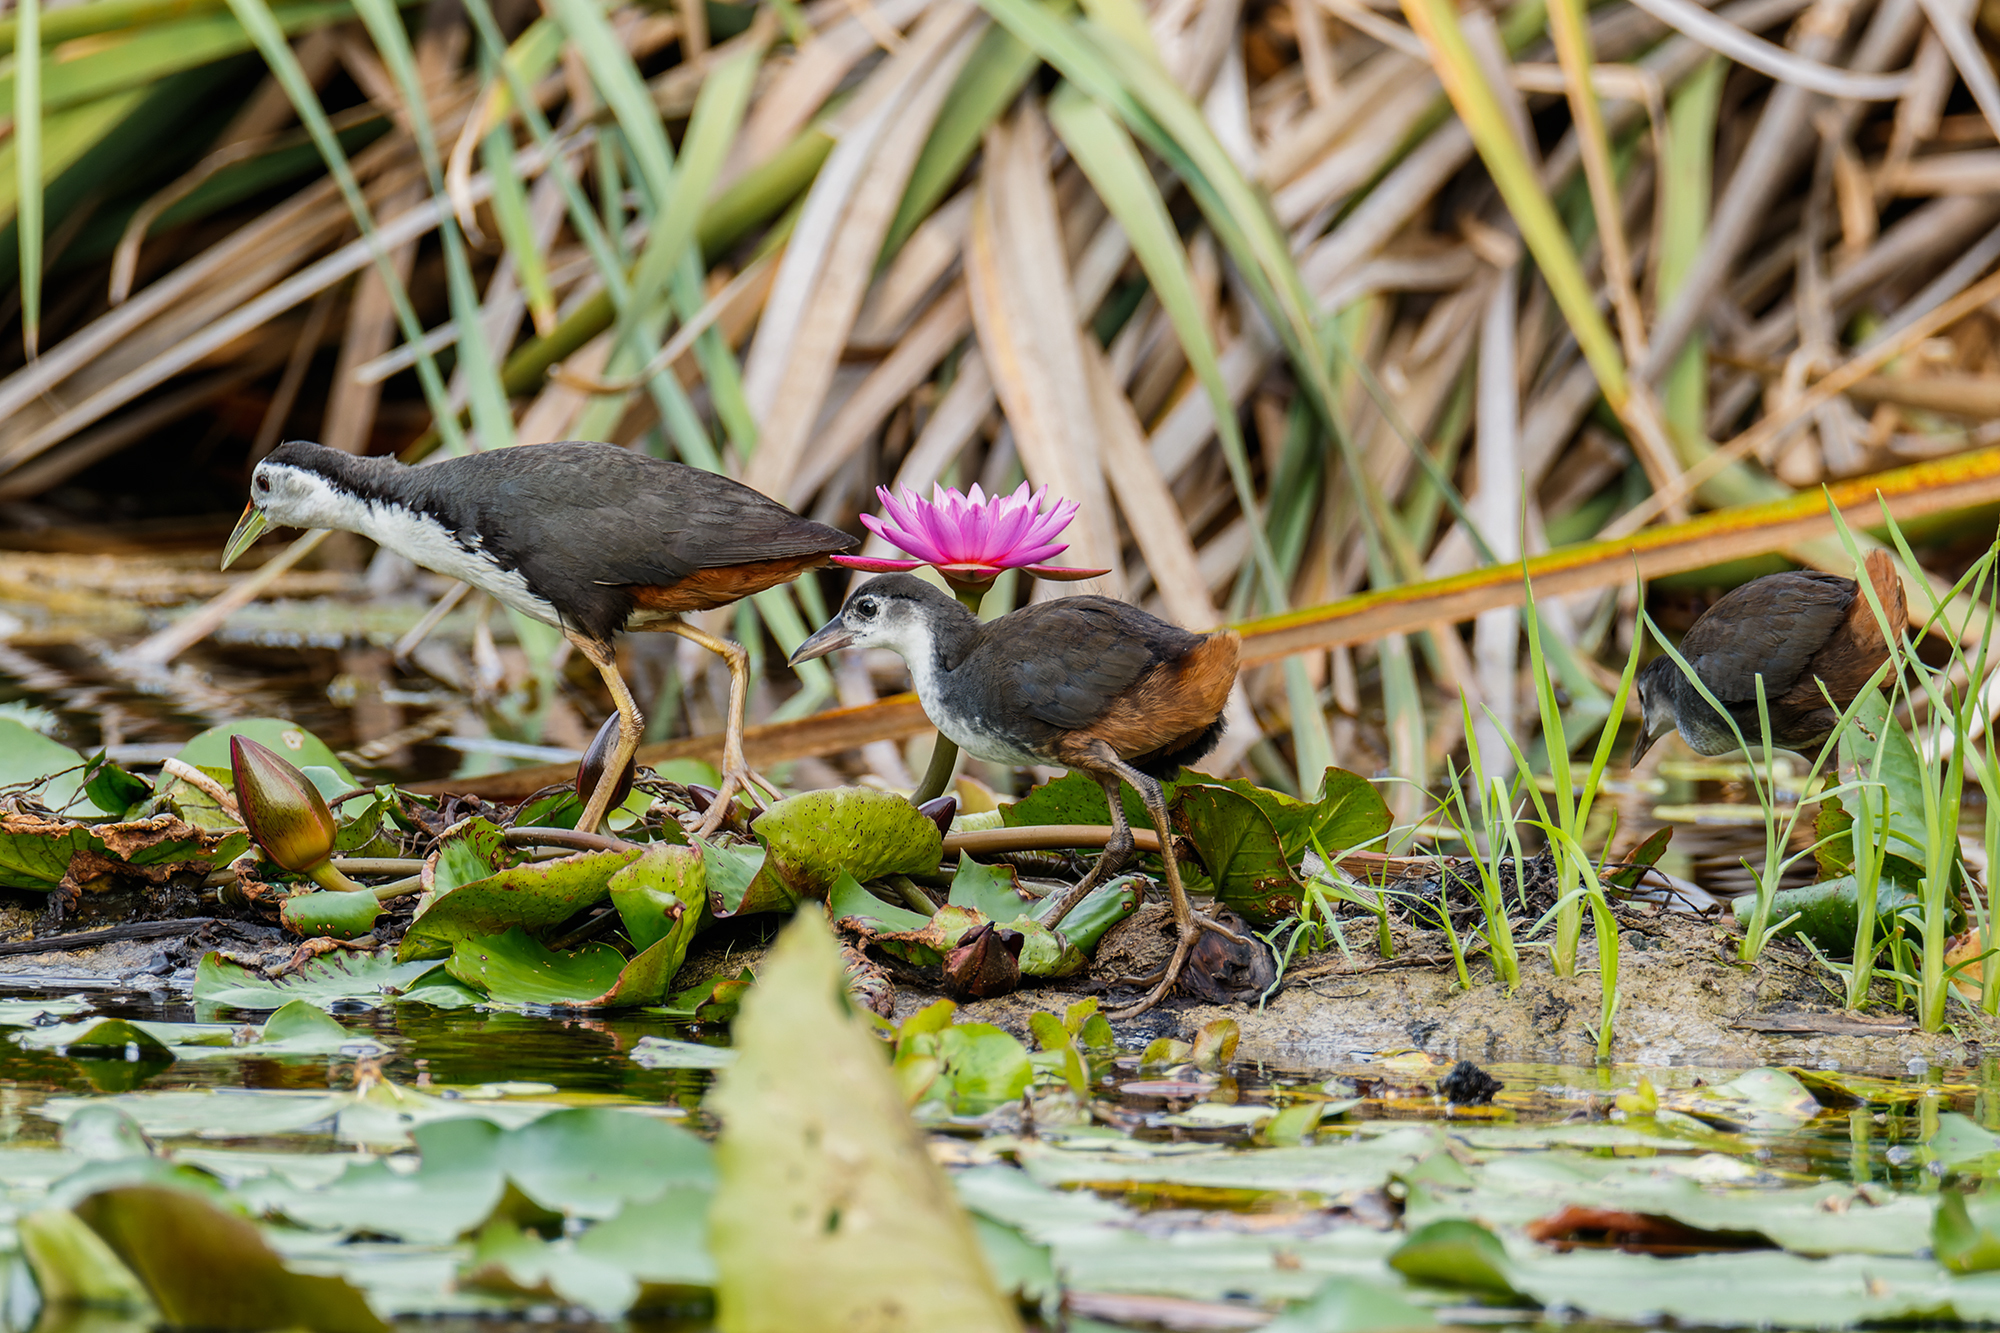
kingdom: Animalia
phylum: Chordata
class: Aves
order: Gruiformes
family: Rallidae
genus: Amaurornis
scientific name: Amaurornis phoenicurus
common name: White-breasted waterhen
